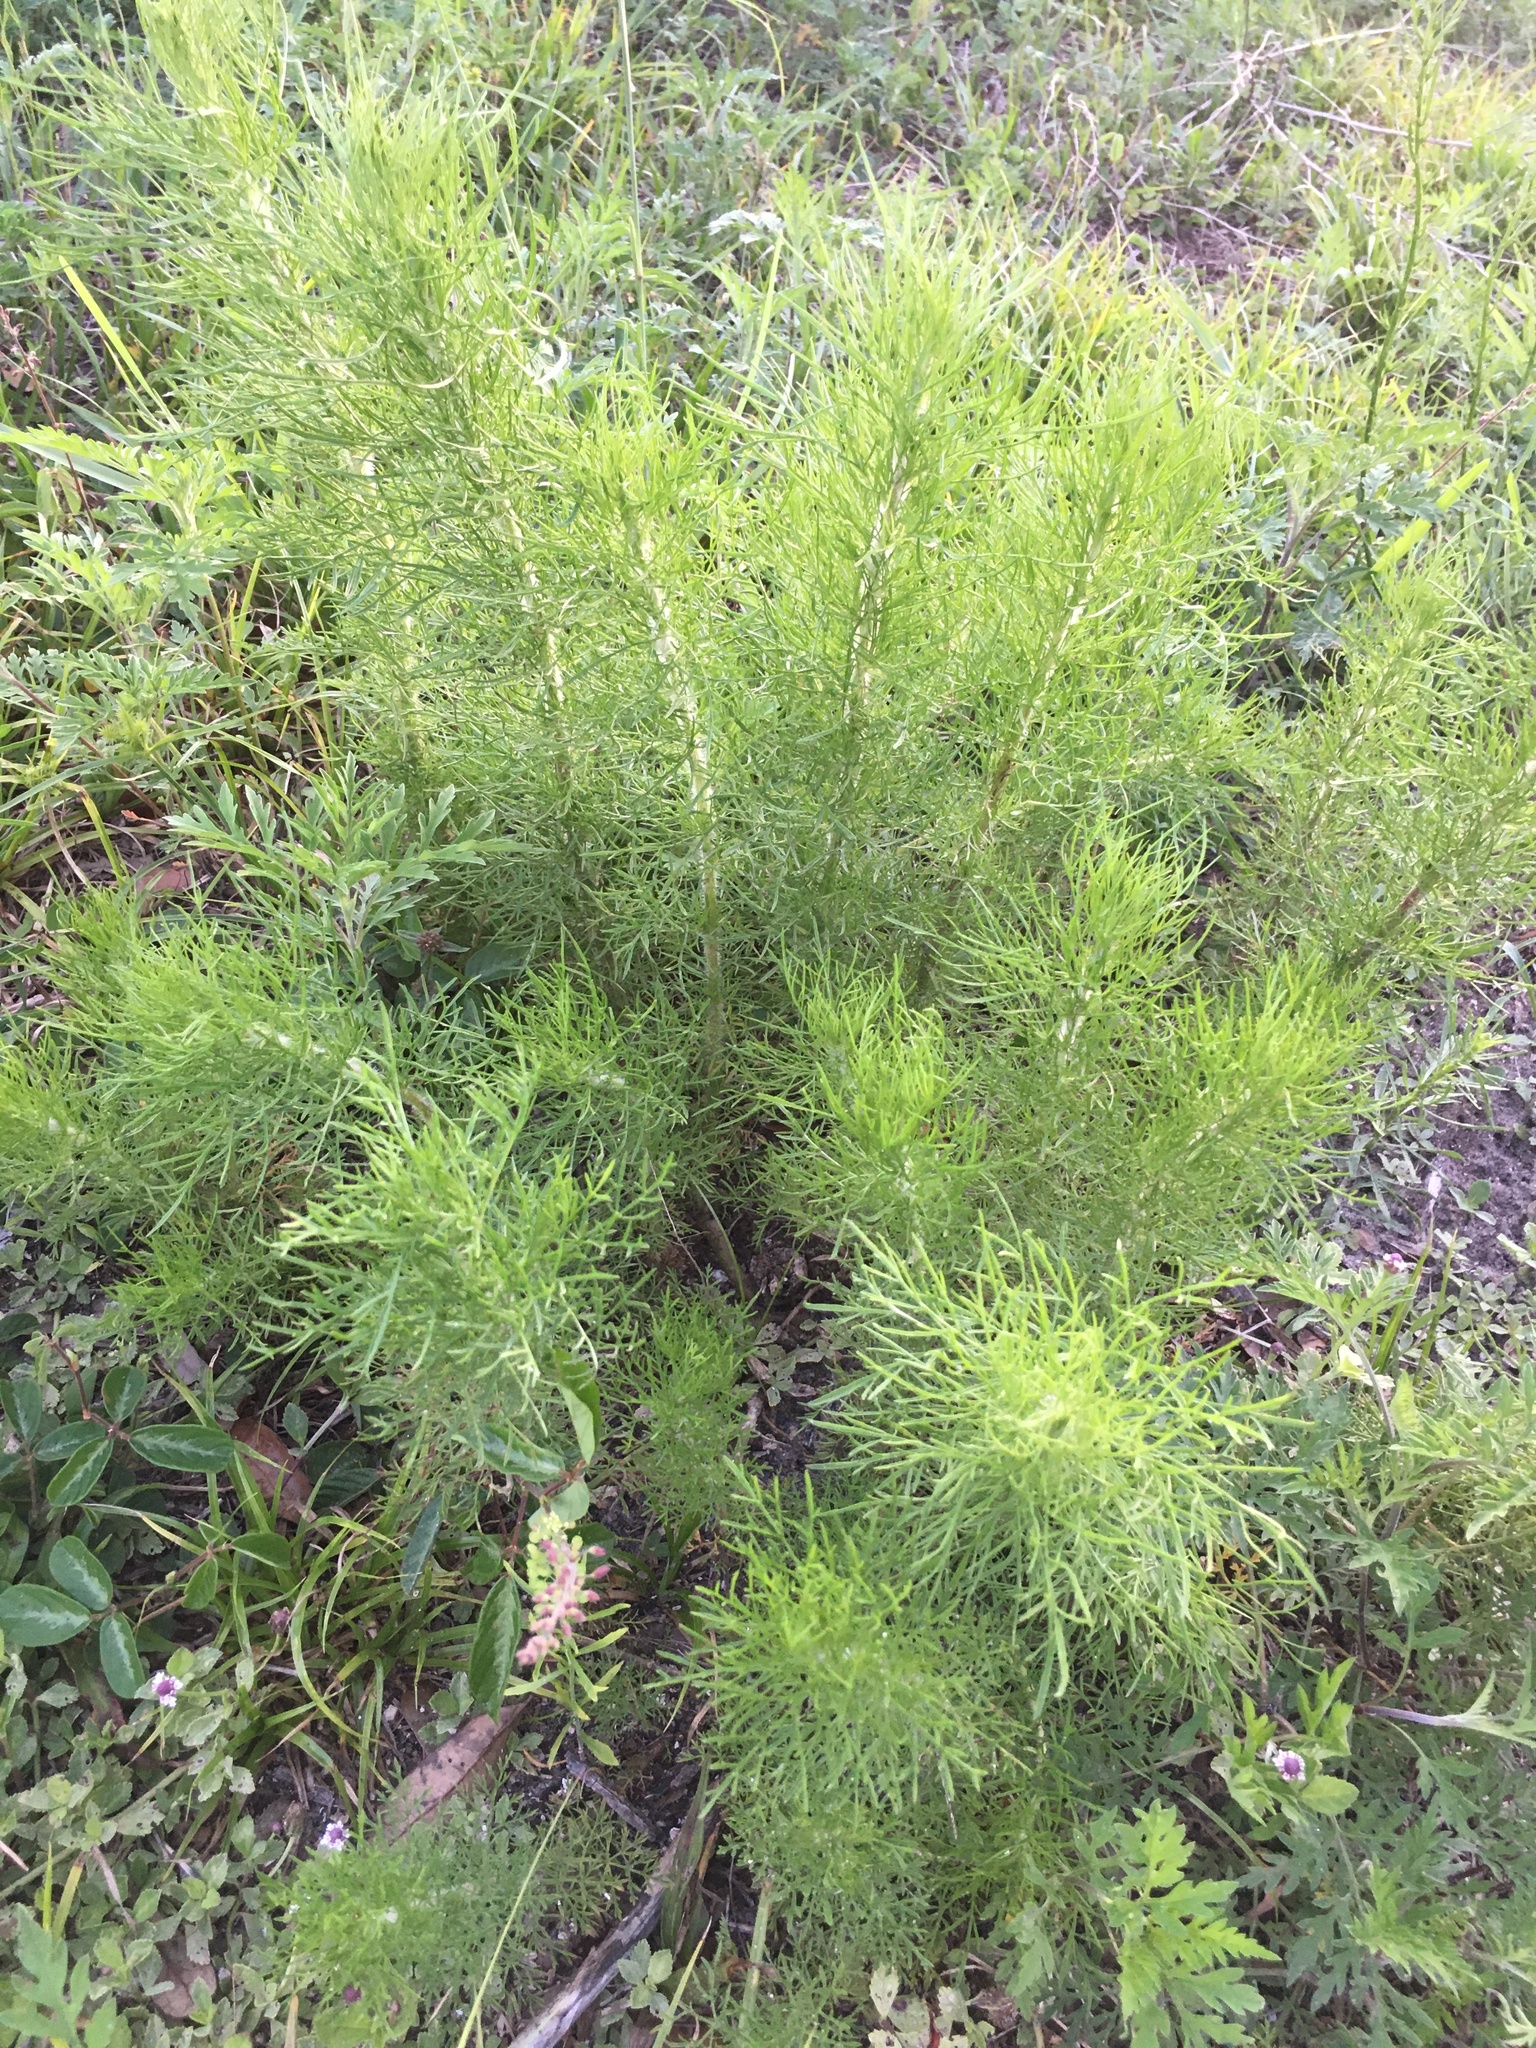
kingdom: Plantae
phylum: Tracheophyta
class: Magnoliopsida
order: Asterales
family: Asteraceae
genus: Eupatorium
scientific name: Eupatorium capillifolium
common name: Dog-fennel
